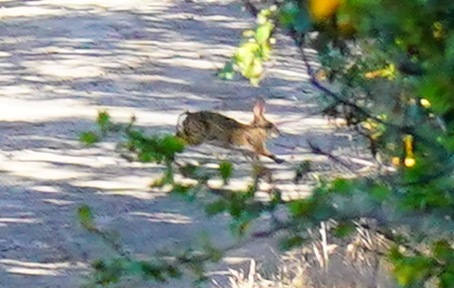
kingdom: Animalia
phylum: Chordata
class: Mammalia
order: Lagomorpha
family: Leporidae
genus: Sylvilagus
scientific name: Sylvilagus bachmani
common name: Brush rabbit
